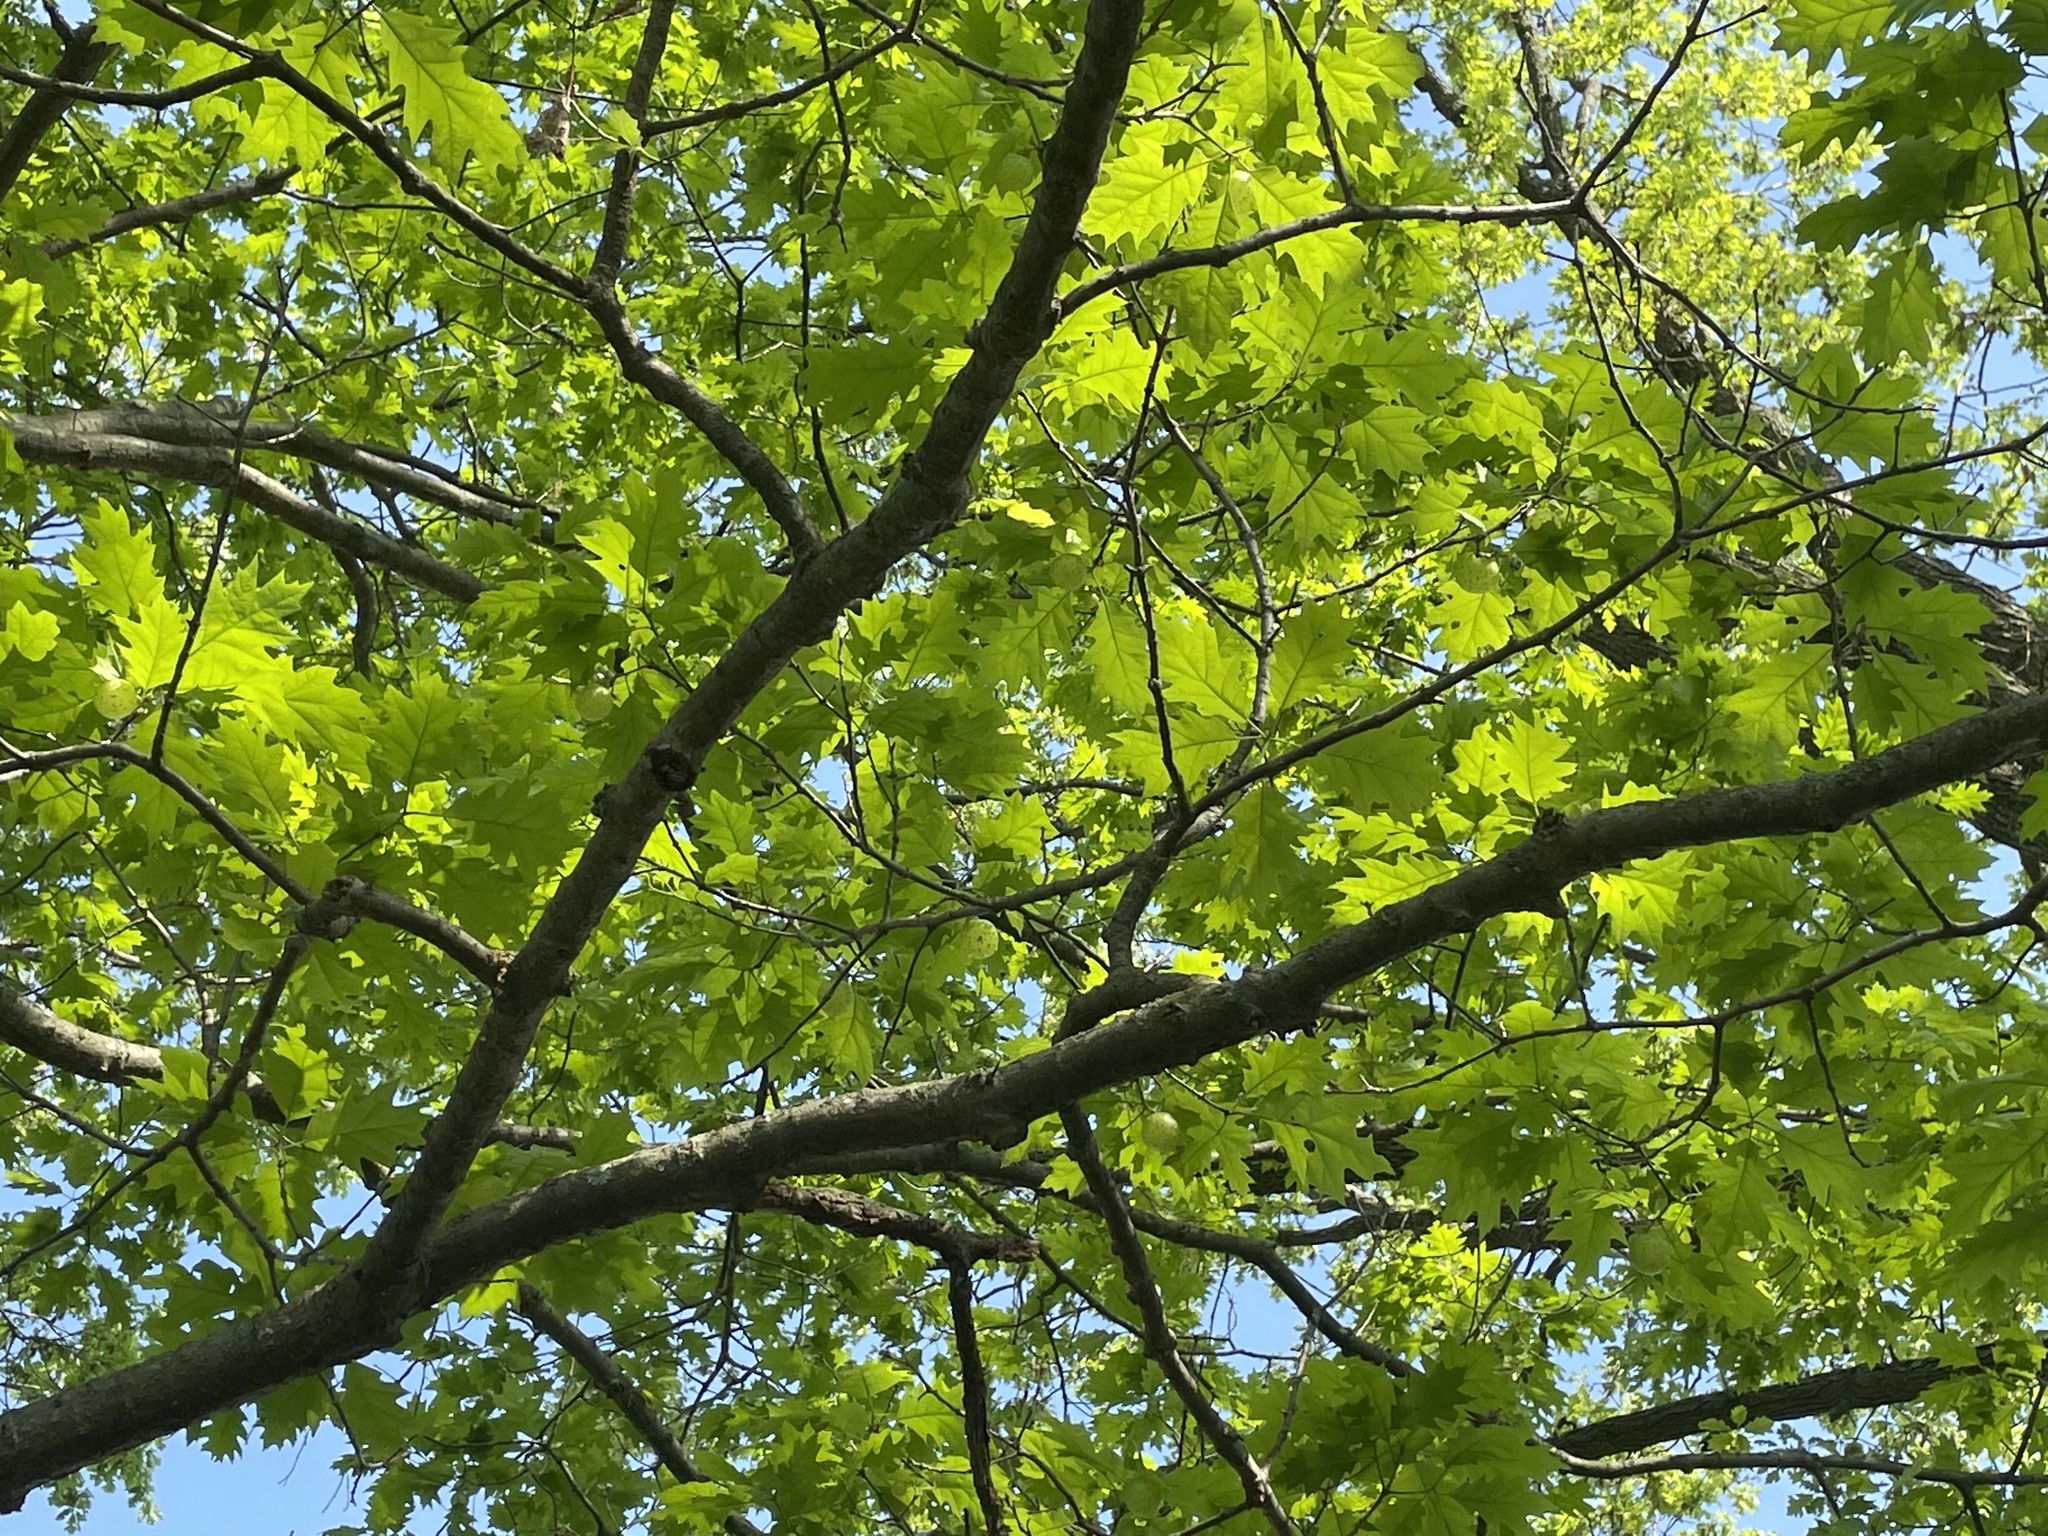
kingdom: Animalia
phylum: Arthropoda
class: Insecta
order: Hymenoptera
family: Cynipidae
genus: Amphibolips
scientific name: Amphibolips
